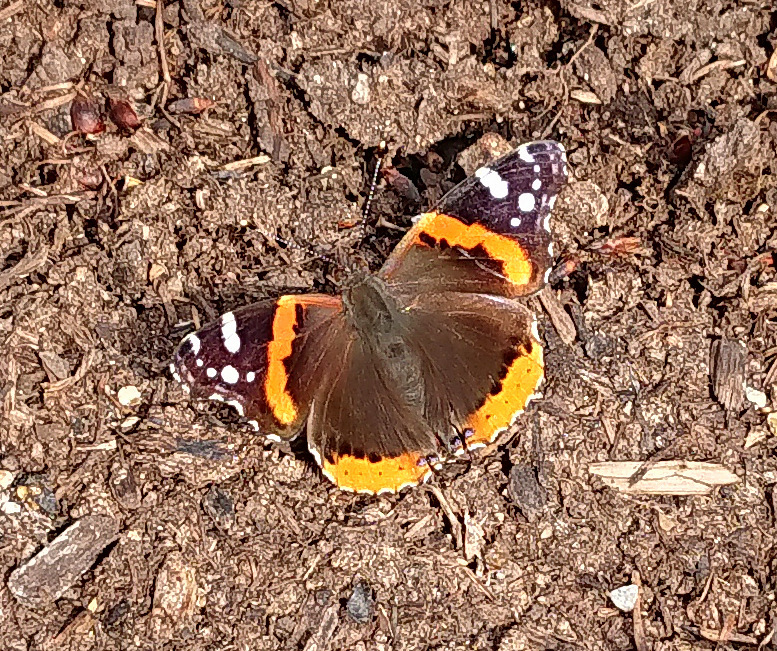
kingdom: Animalia
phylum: Arthropoda
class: Insecta
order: Lepidoptera
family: Nymphalidae
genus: Vanessa
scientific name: Vanessa atalanta
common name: Red admiral
